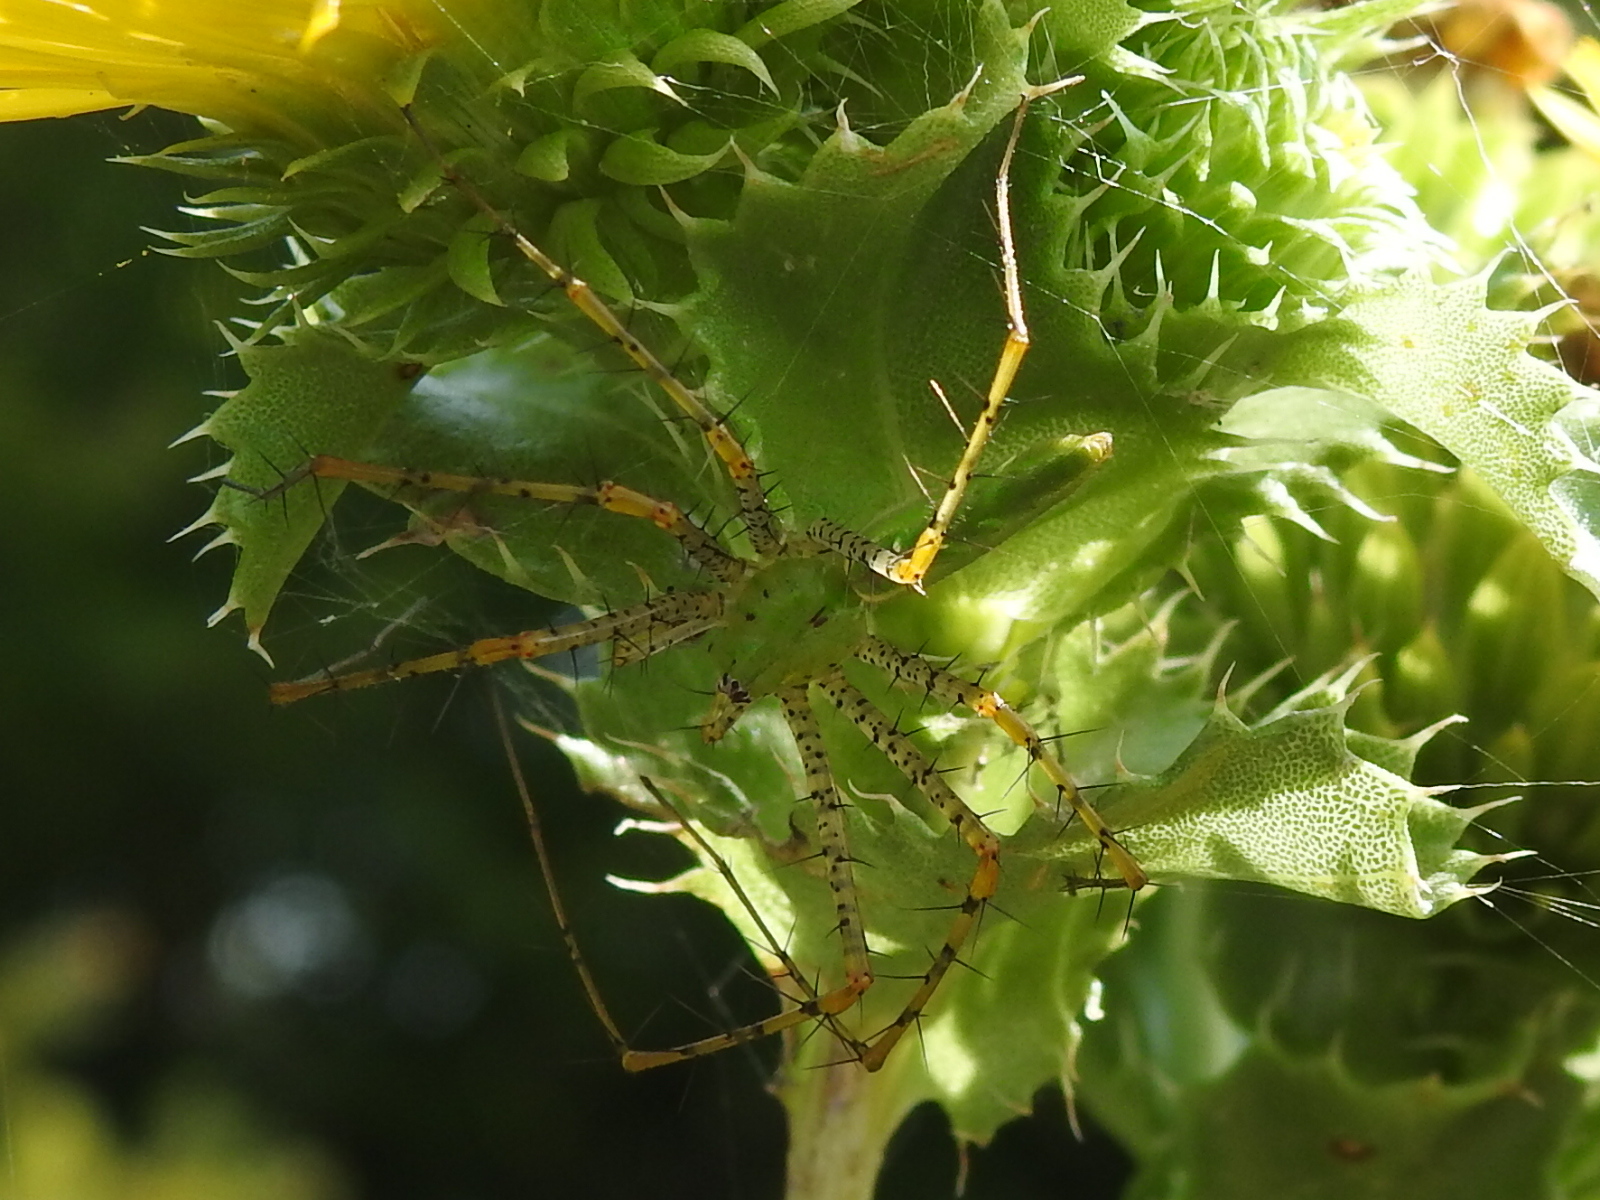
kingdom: Animalia
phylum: Arthropoda
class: Arachnida
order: Araneae
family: Oxyopidae
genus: Peucetia
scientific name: Peucetia viridans
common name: Lynx spiders
